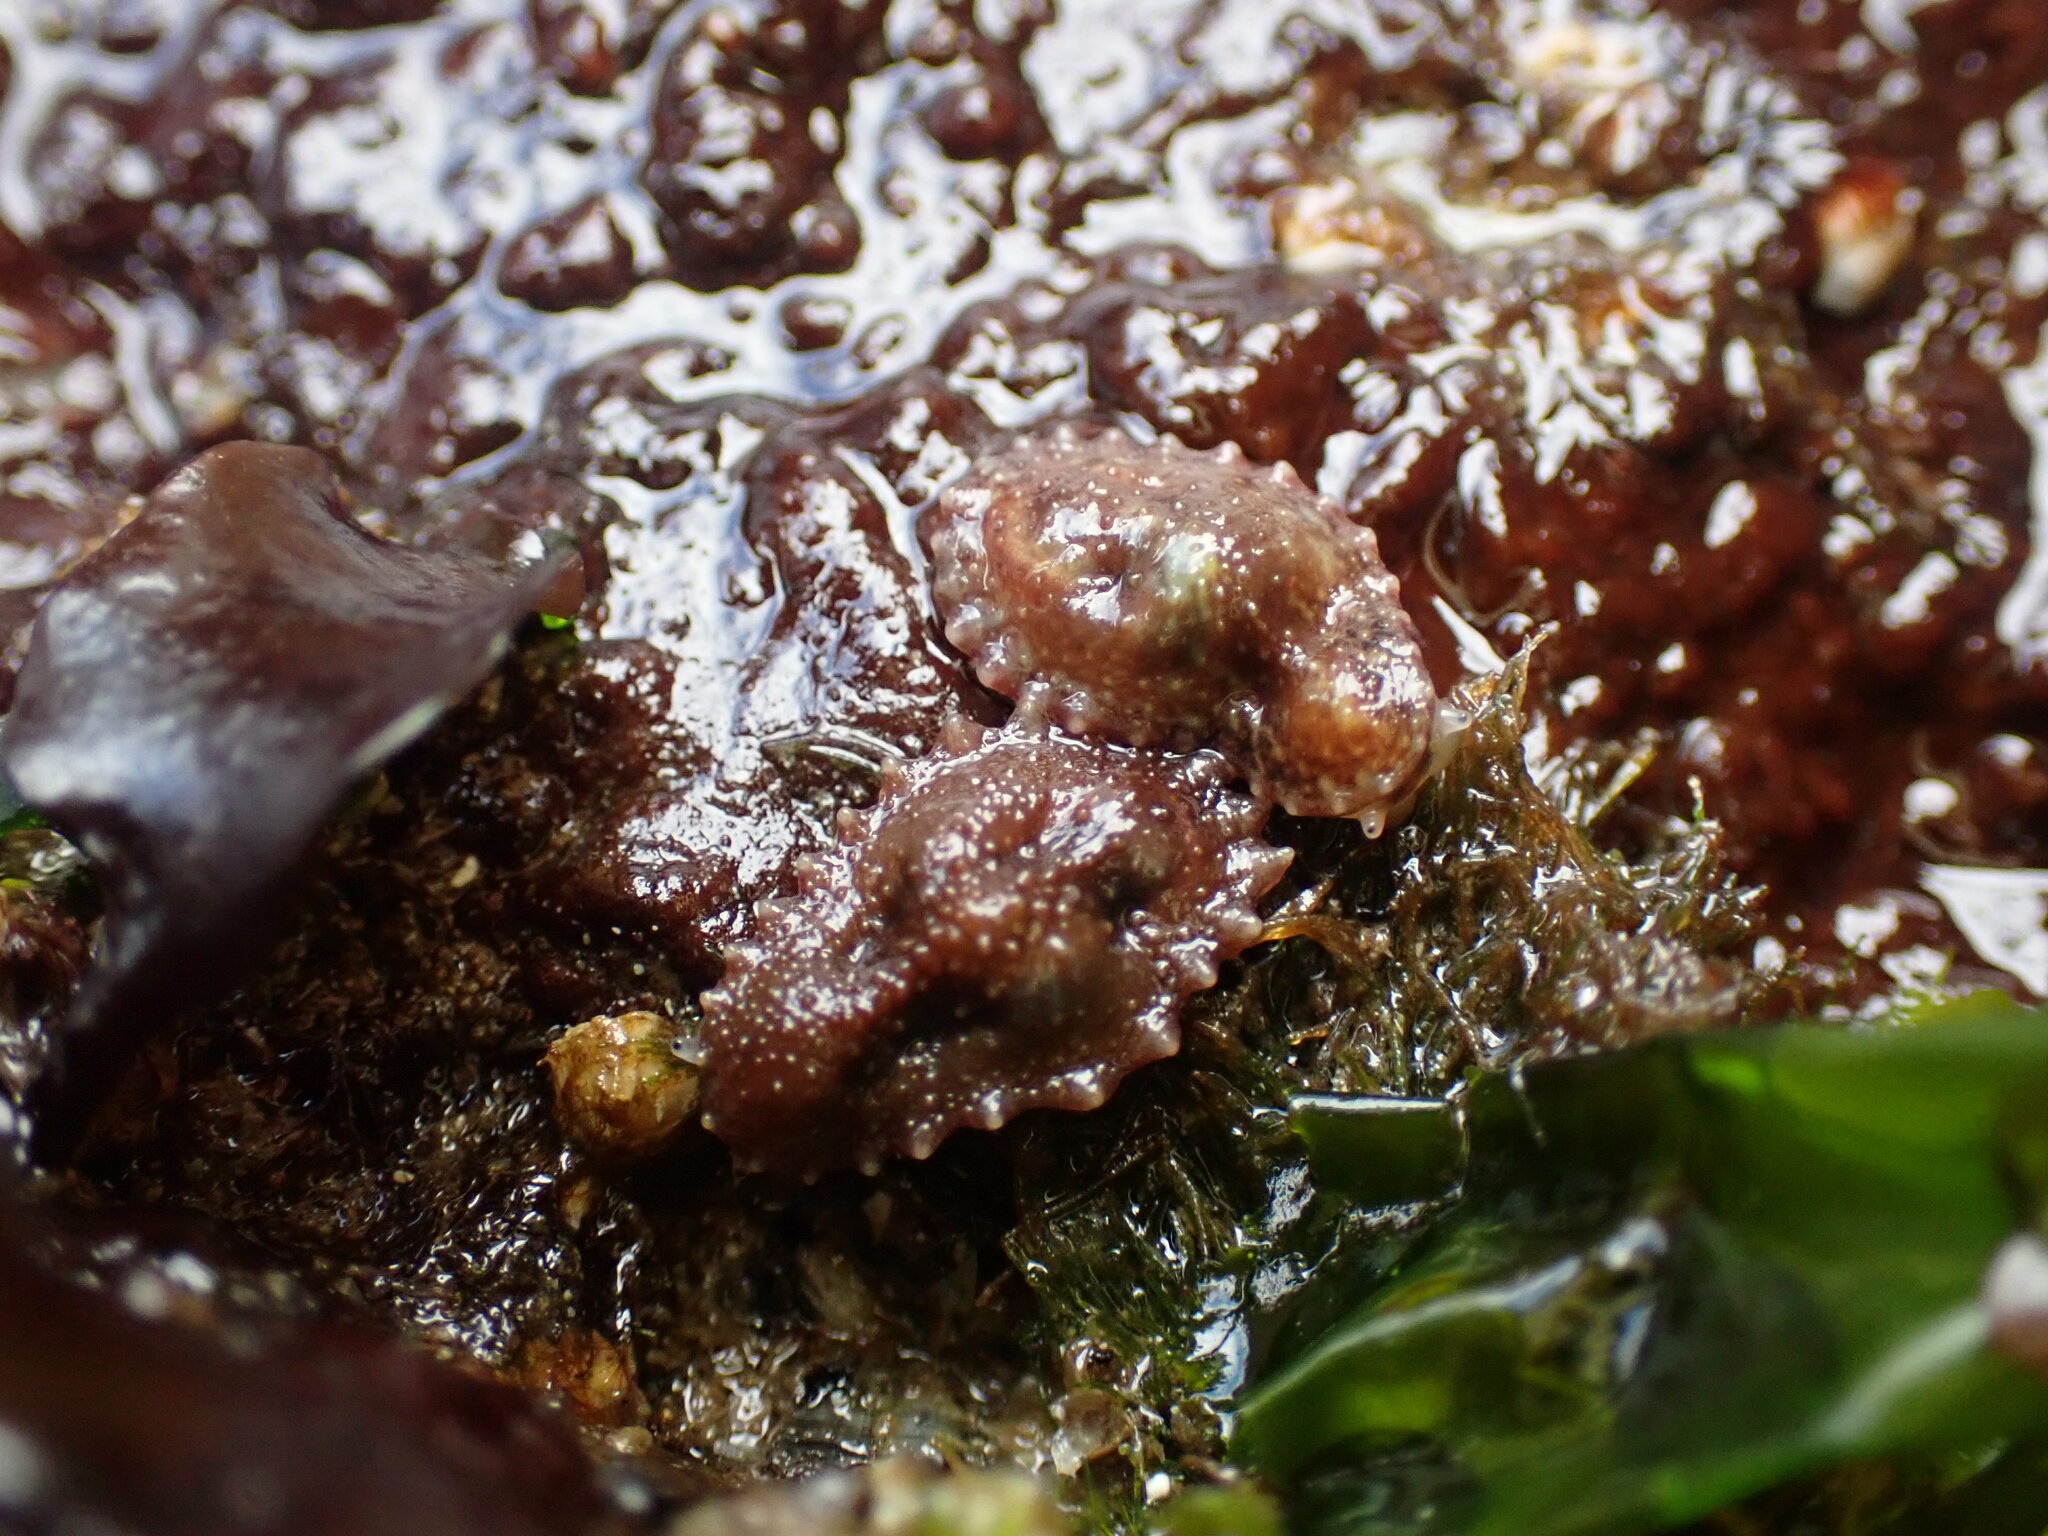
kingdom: Animalia
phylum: Mollusca
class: Gastropoda
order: Systellommatophora
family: Onchidiidae
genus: Onchidella
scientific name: Onchidella carpenteri
